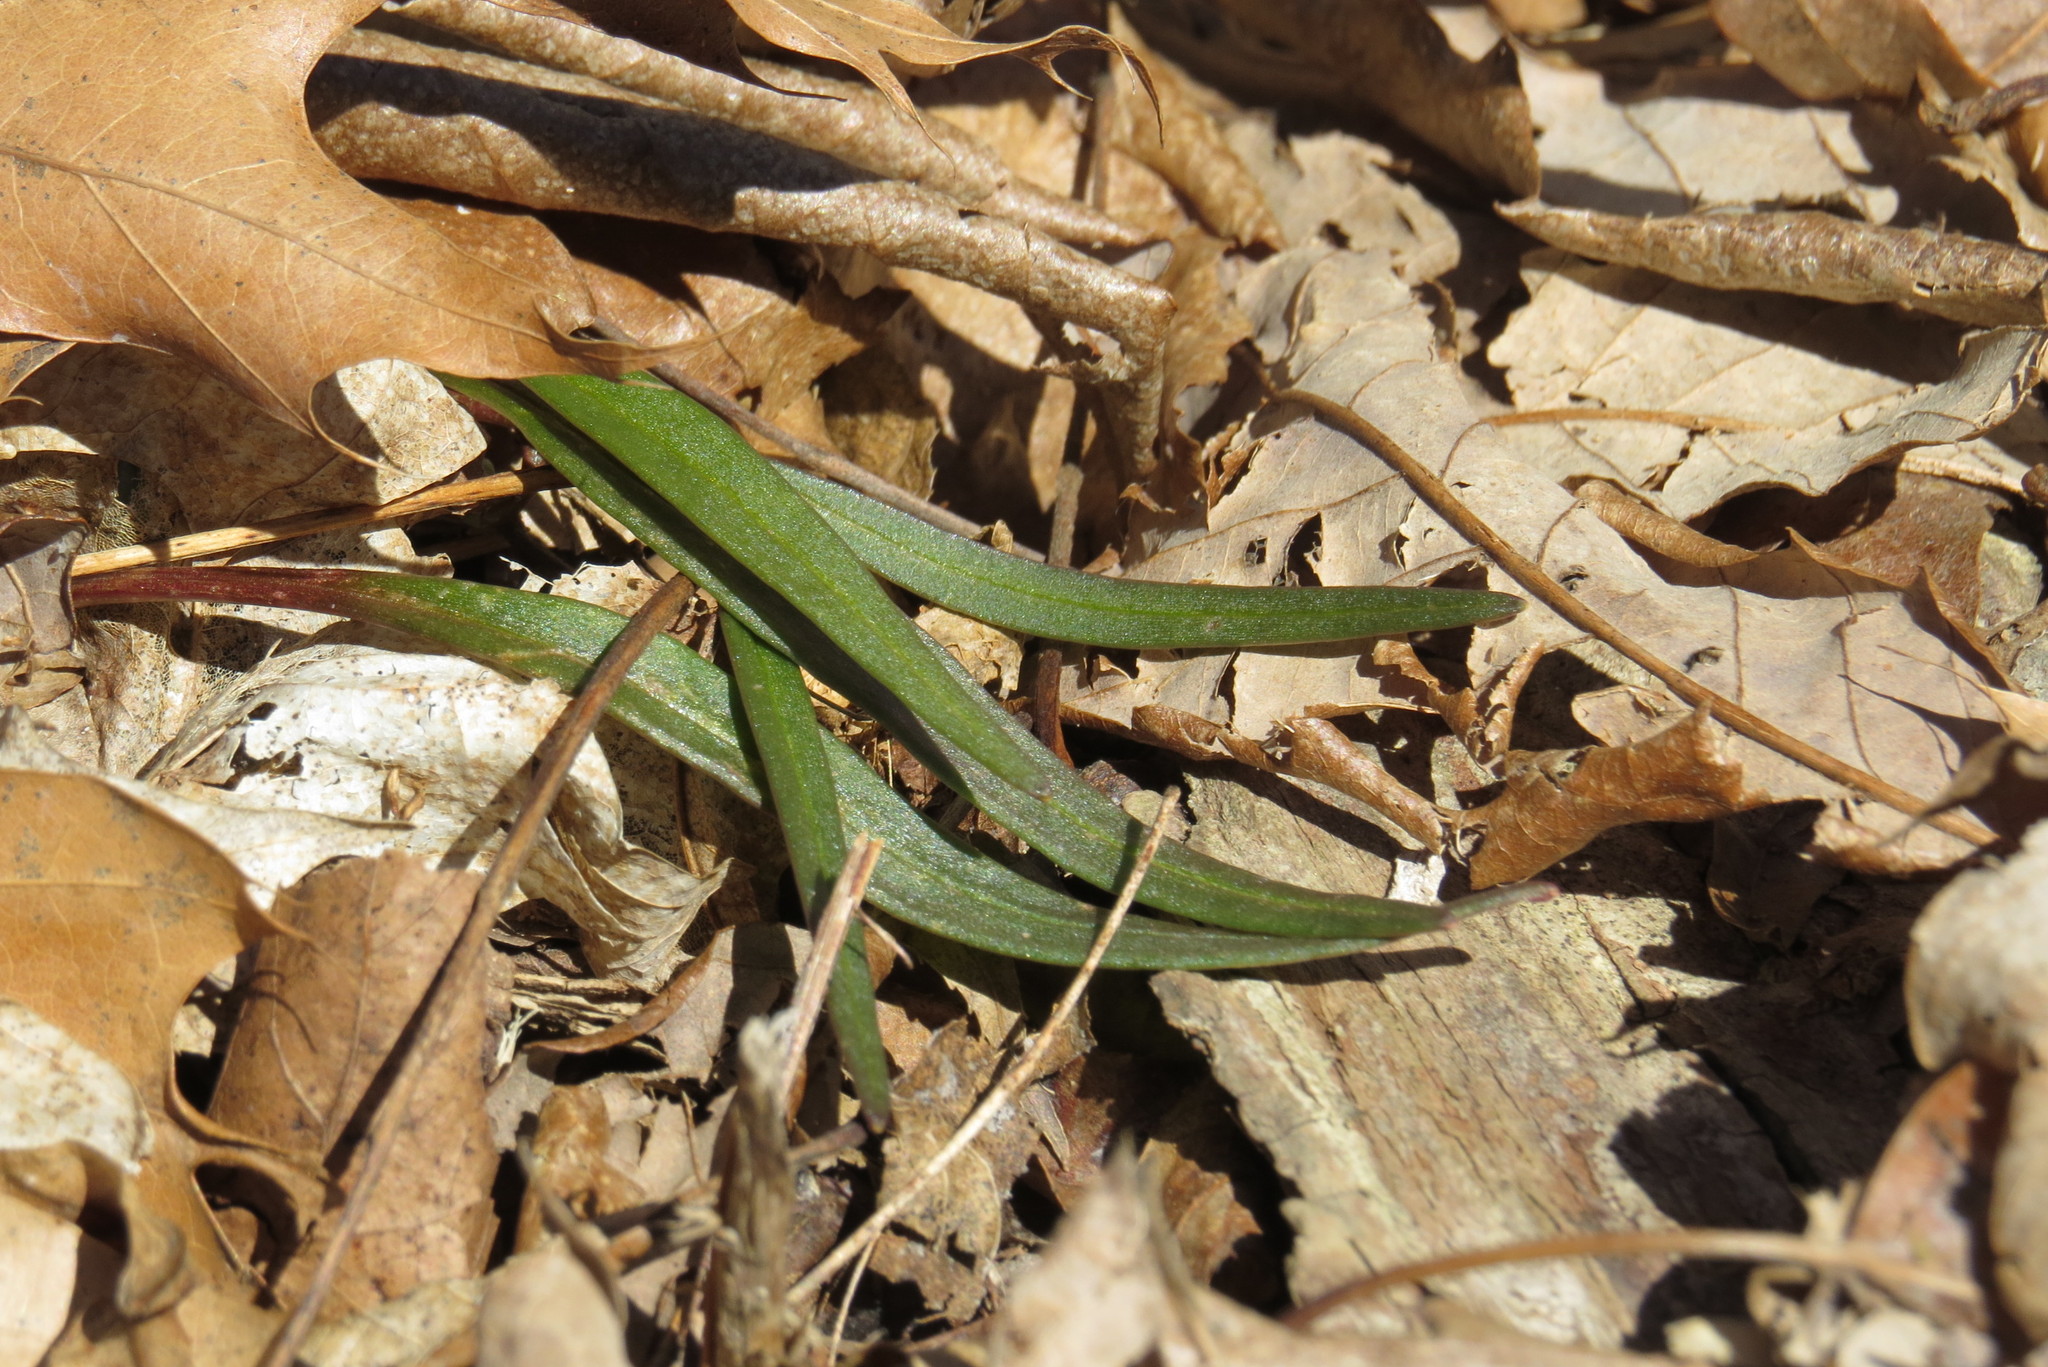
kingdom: Plantae
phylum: Tracheophyta
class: Magnoliopsida
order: Caryophyllales
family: Montiaceae
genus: Claytonia
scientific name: Claytonia virginica
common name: Virginia springbeauty
